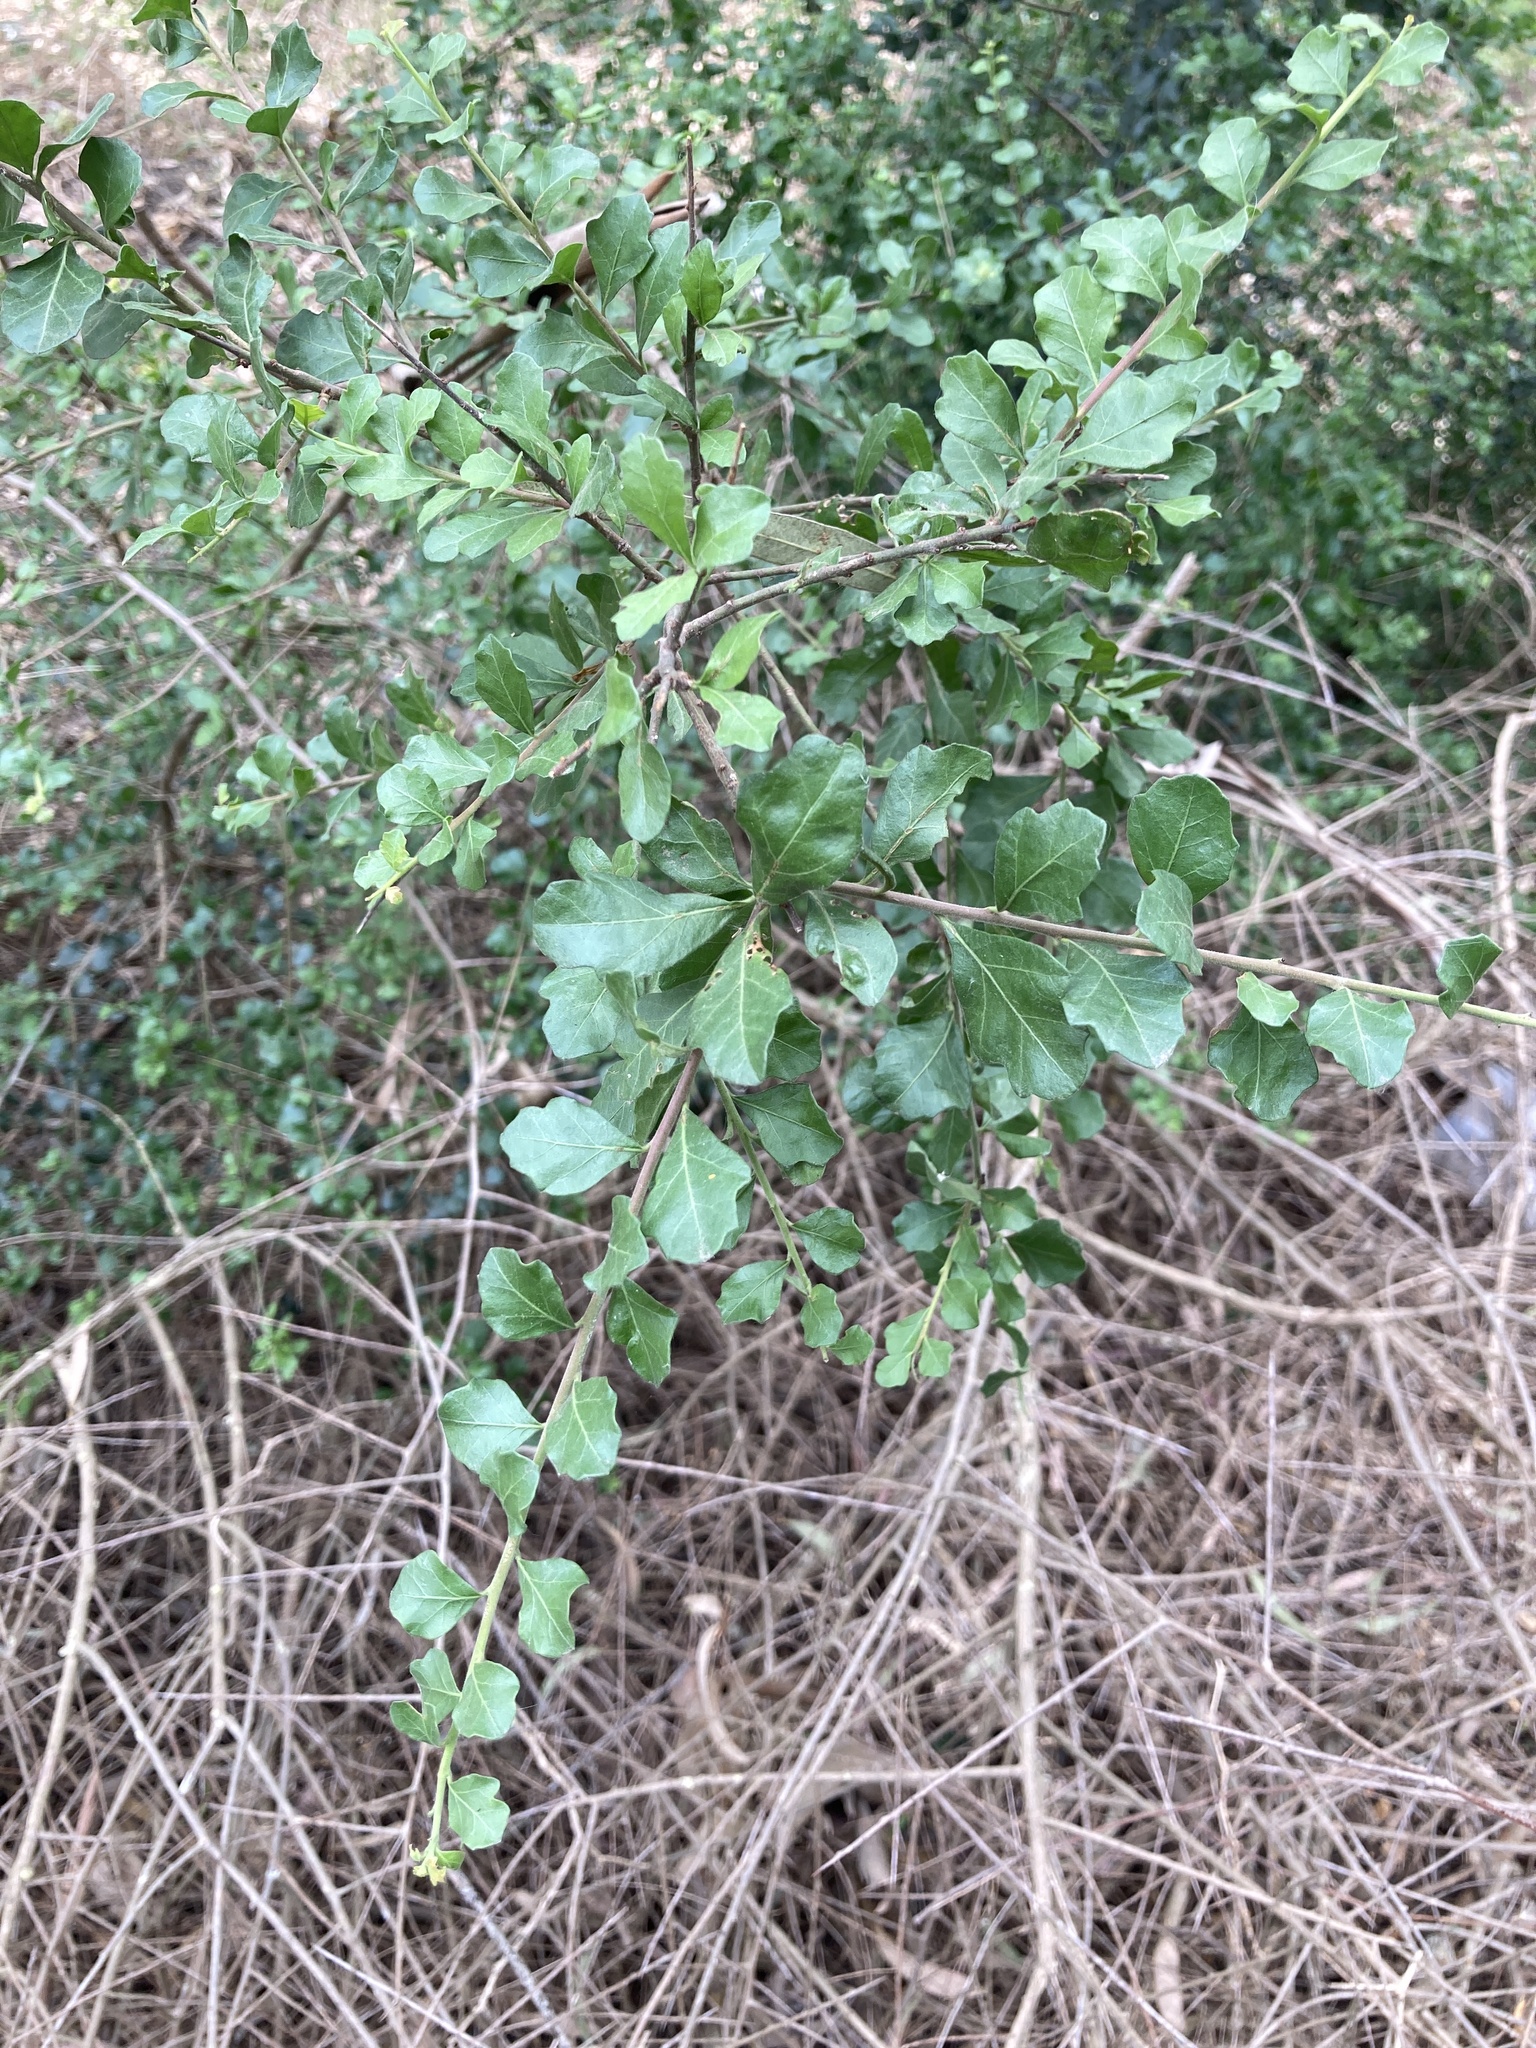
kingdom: Plantae
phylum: Tracheophyta
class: Magnoliopsida
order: Sapindales
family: Anacardiaceae
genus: Schinus
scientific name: Schinus fasciculata
